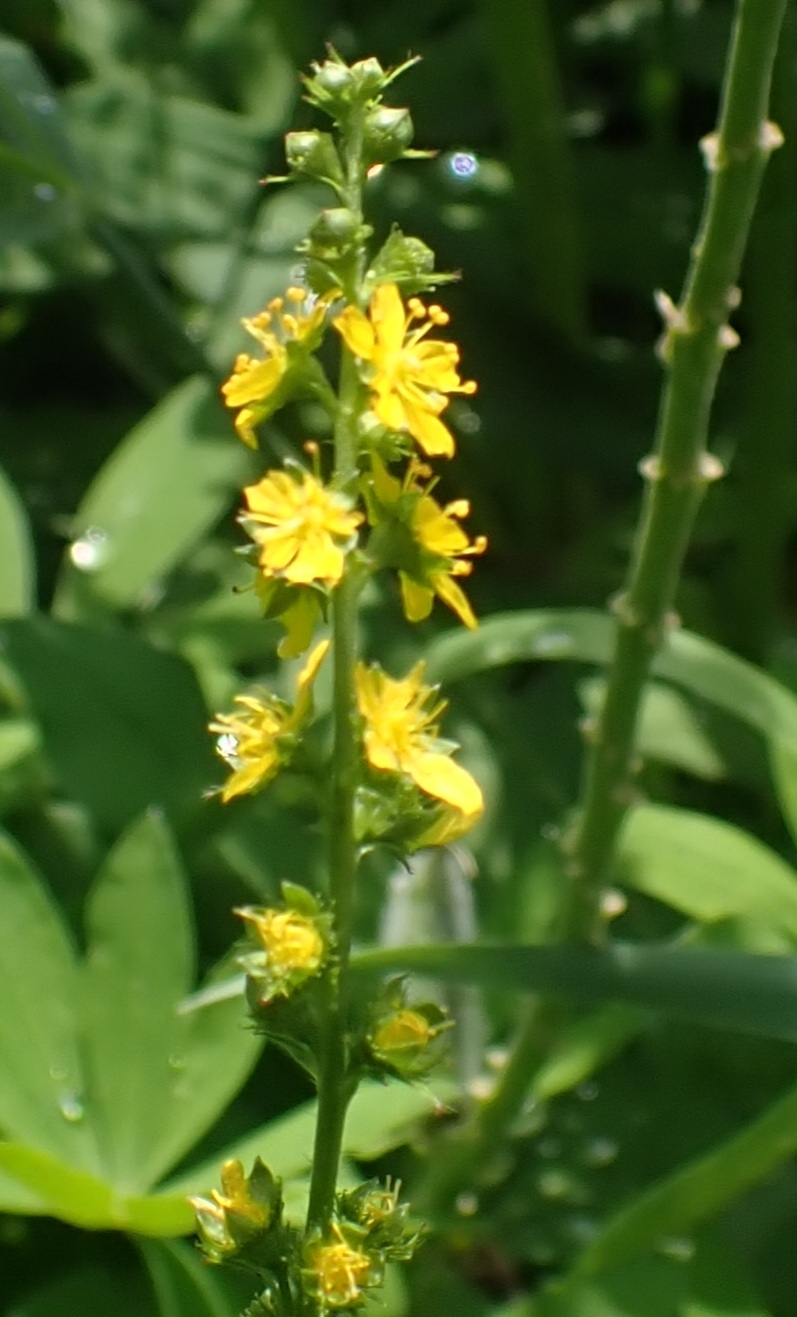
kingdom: Plantae
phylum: Tracheophyta
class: Magnoliopsida
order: Rosales
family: Rosaceae
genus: Agrimonia
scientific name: Agrimonia pilosa
